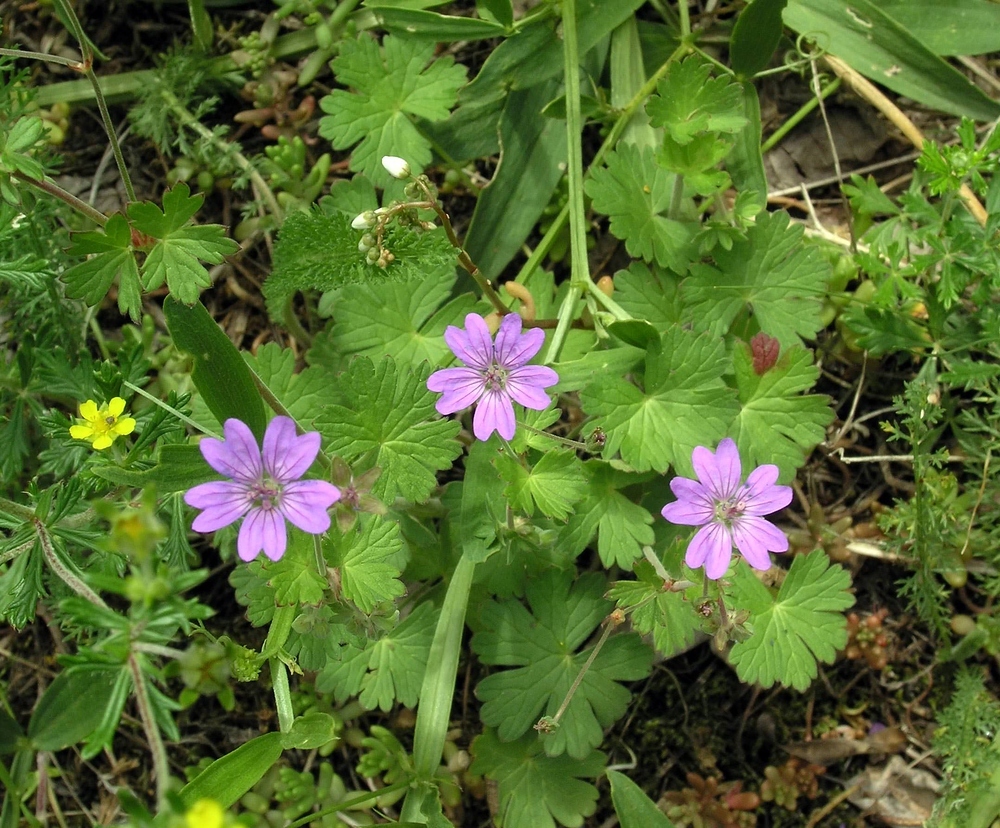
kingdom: Plantae
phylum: Tracheophyta
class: Magnoliopsida
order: Geraniales
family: Geraniaceae
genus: Geranium
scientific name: Geranium pyrenaicum
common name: Hedgerow crane's-bill
